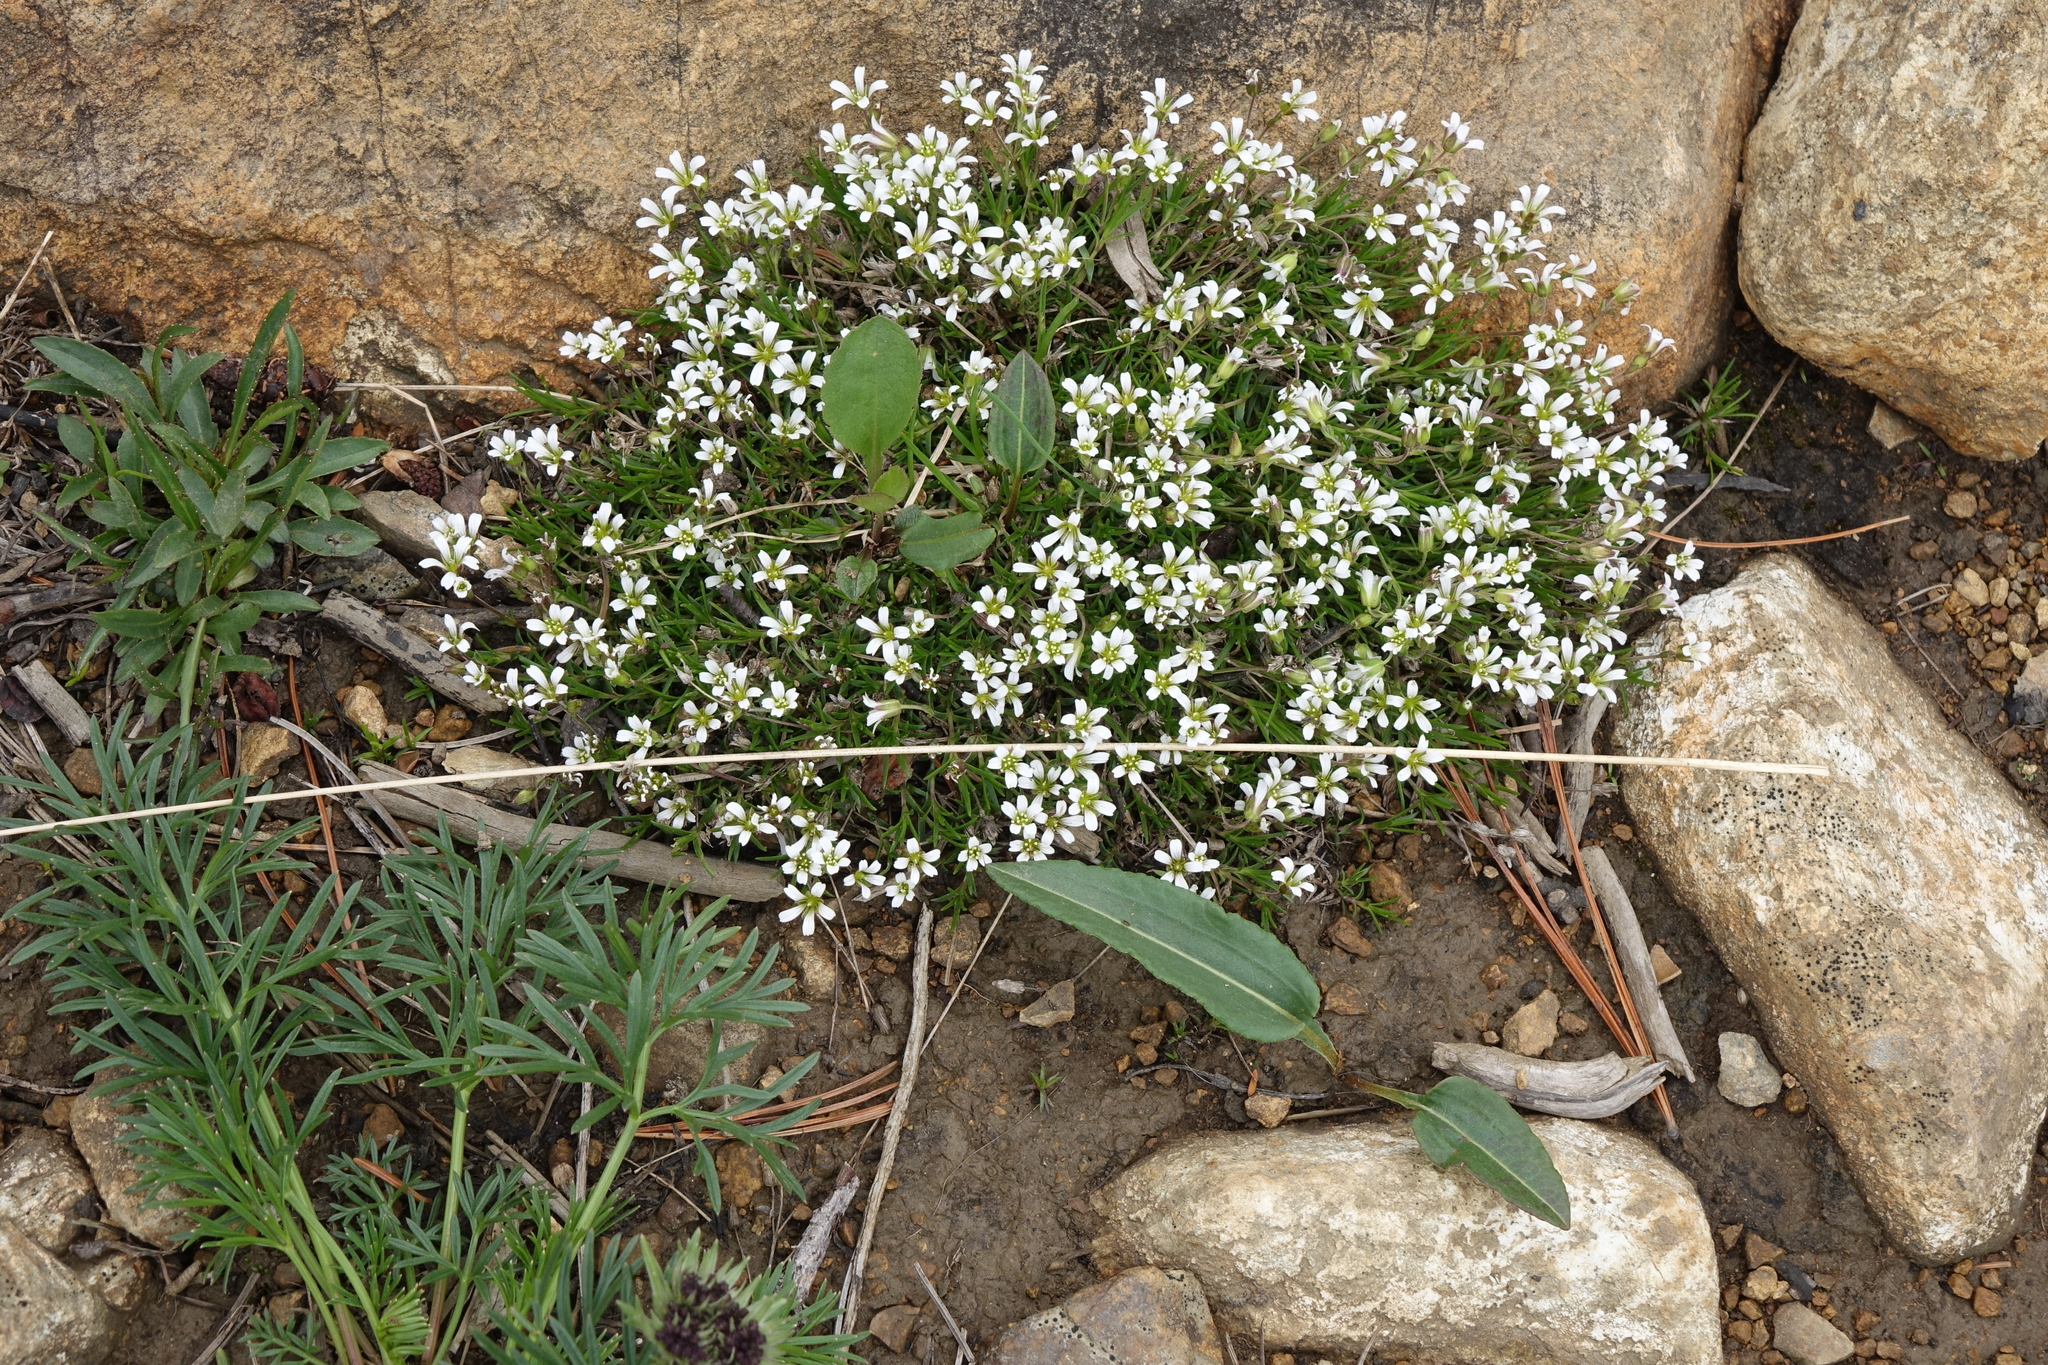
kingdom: Plantae
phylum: Tracheophyta
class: Magnoliopsida
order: Caryophyllales
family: Caryophyllaceae
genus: Cherleria
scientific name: Cherleria biflora
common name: Mountain sandwort
